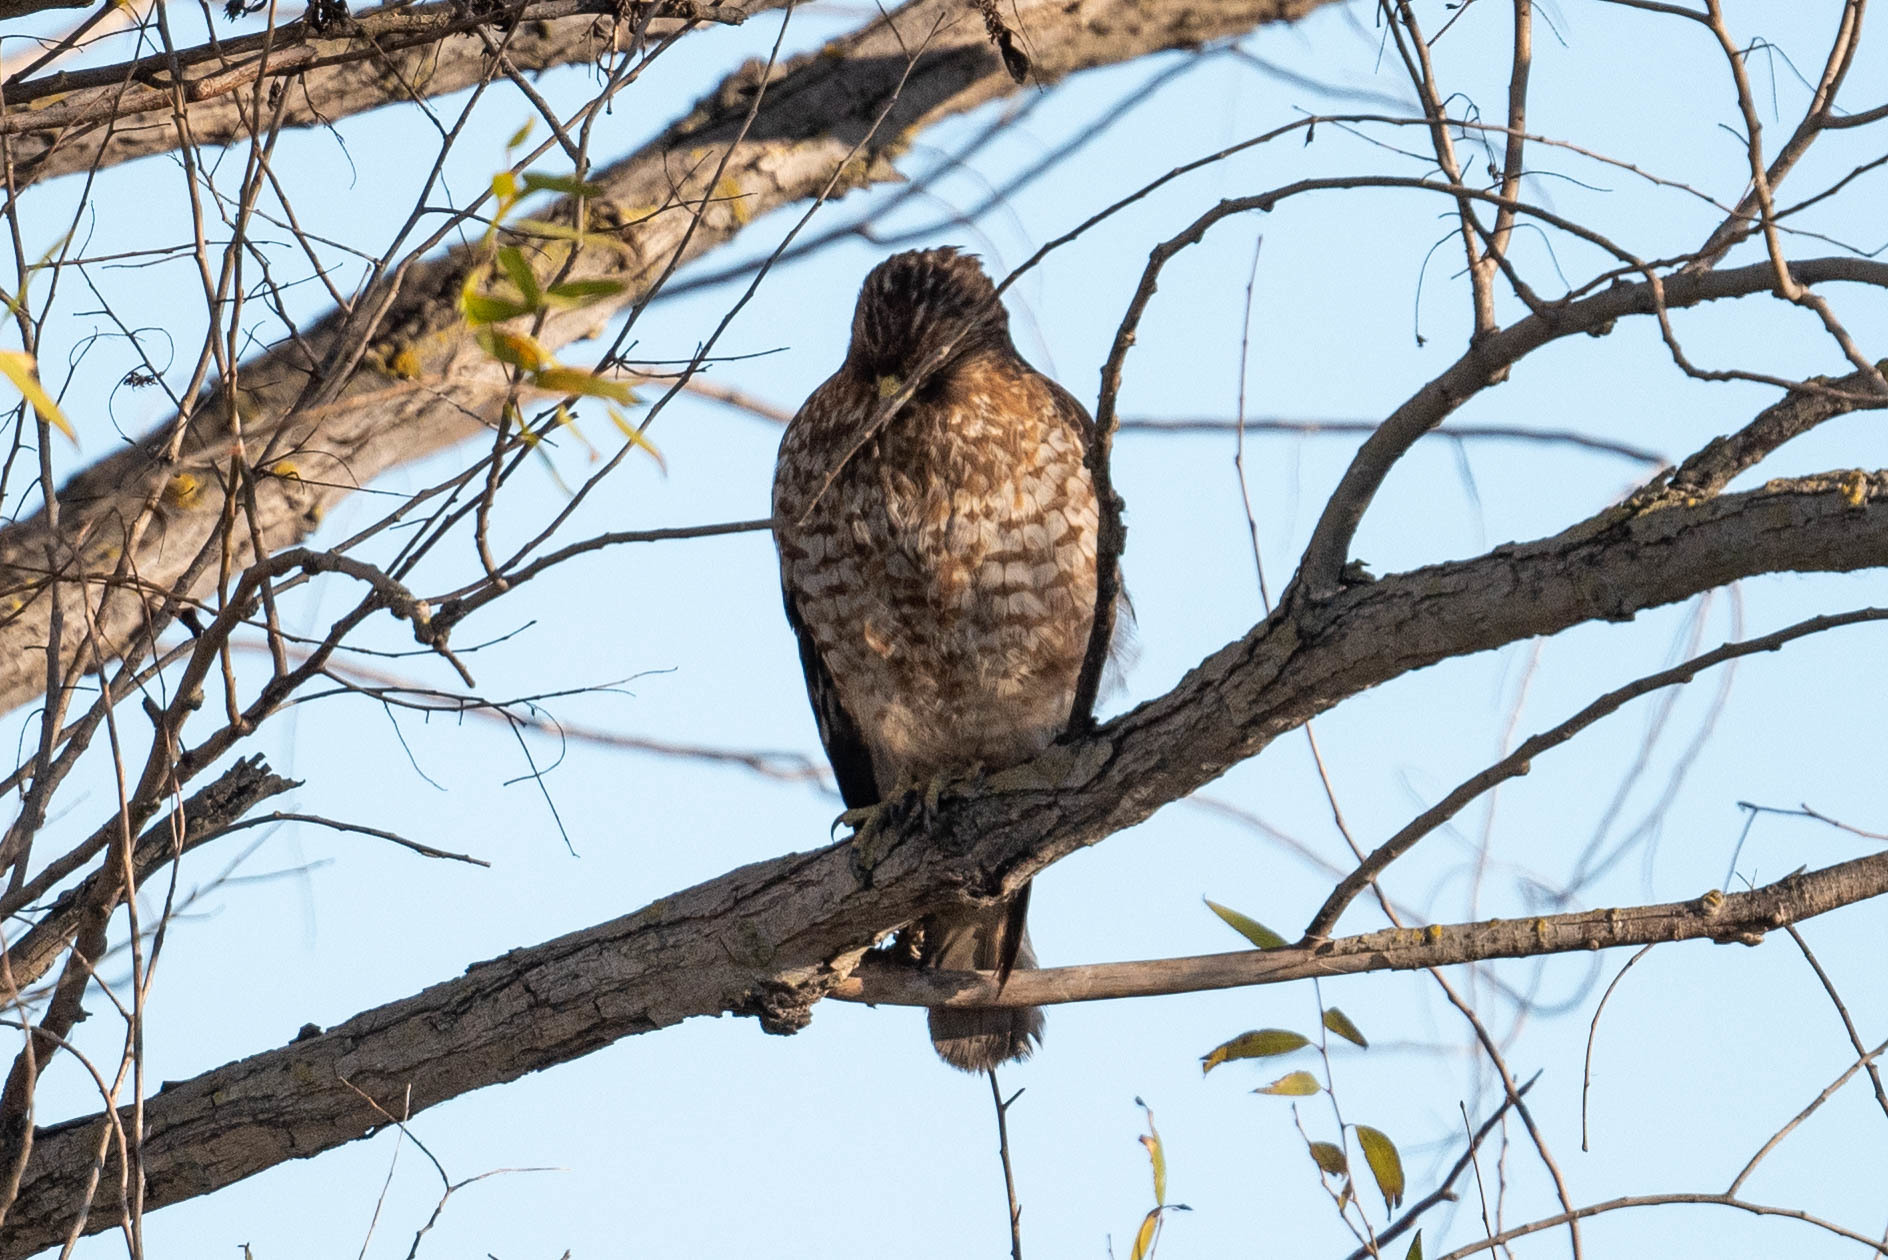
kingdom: Animalia
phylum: Chordata
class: Aves
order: Accipitriformes
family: Accipitridae
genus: Buteo
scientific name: Buteo lineatus
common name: Red-shouldered hawk
